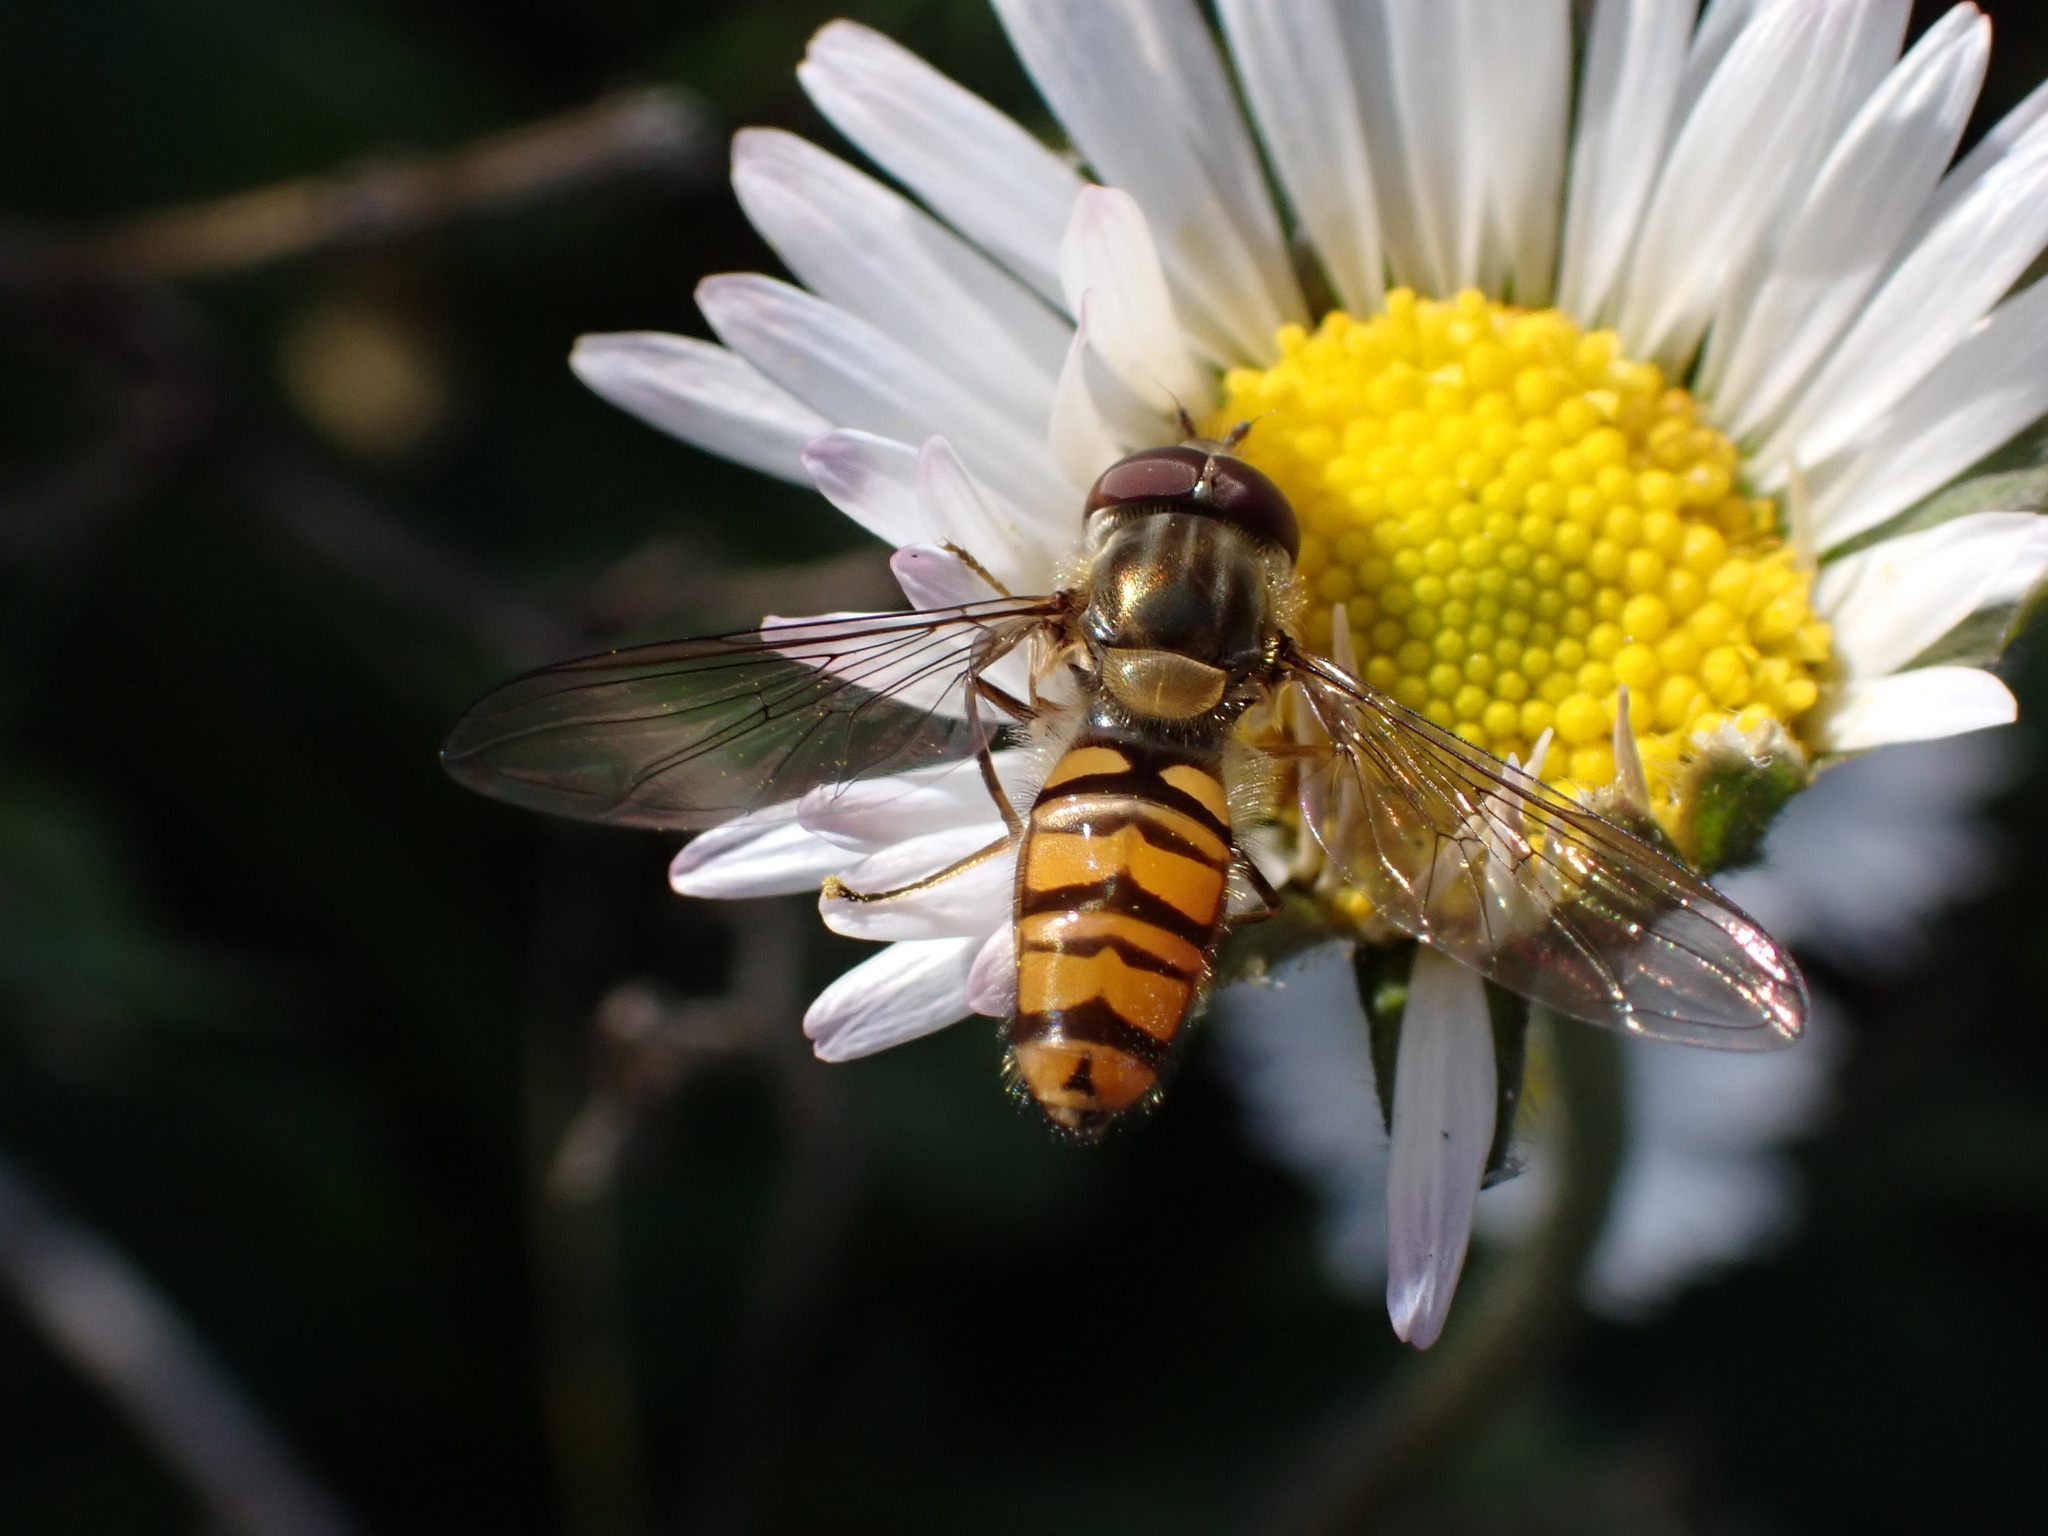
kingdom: Animalia
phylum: Arthropoda
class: Insecta
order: Diptera
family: Syrphidae
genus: Episyrphus
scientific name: Episyrphus balteatus
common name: Marmalade hoverfly
